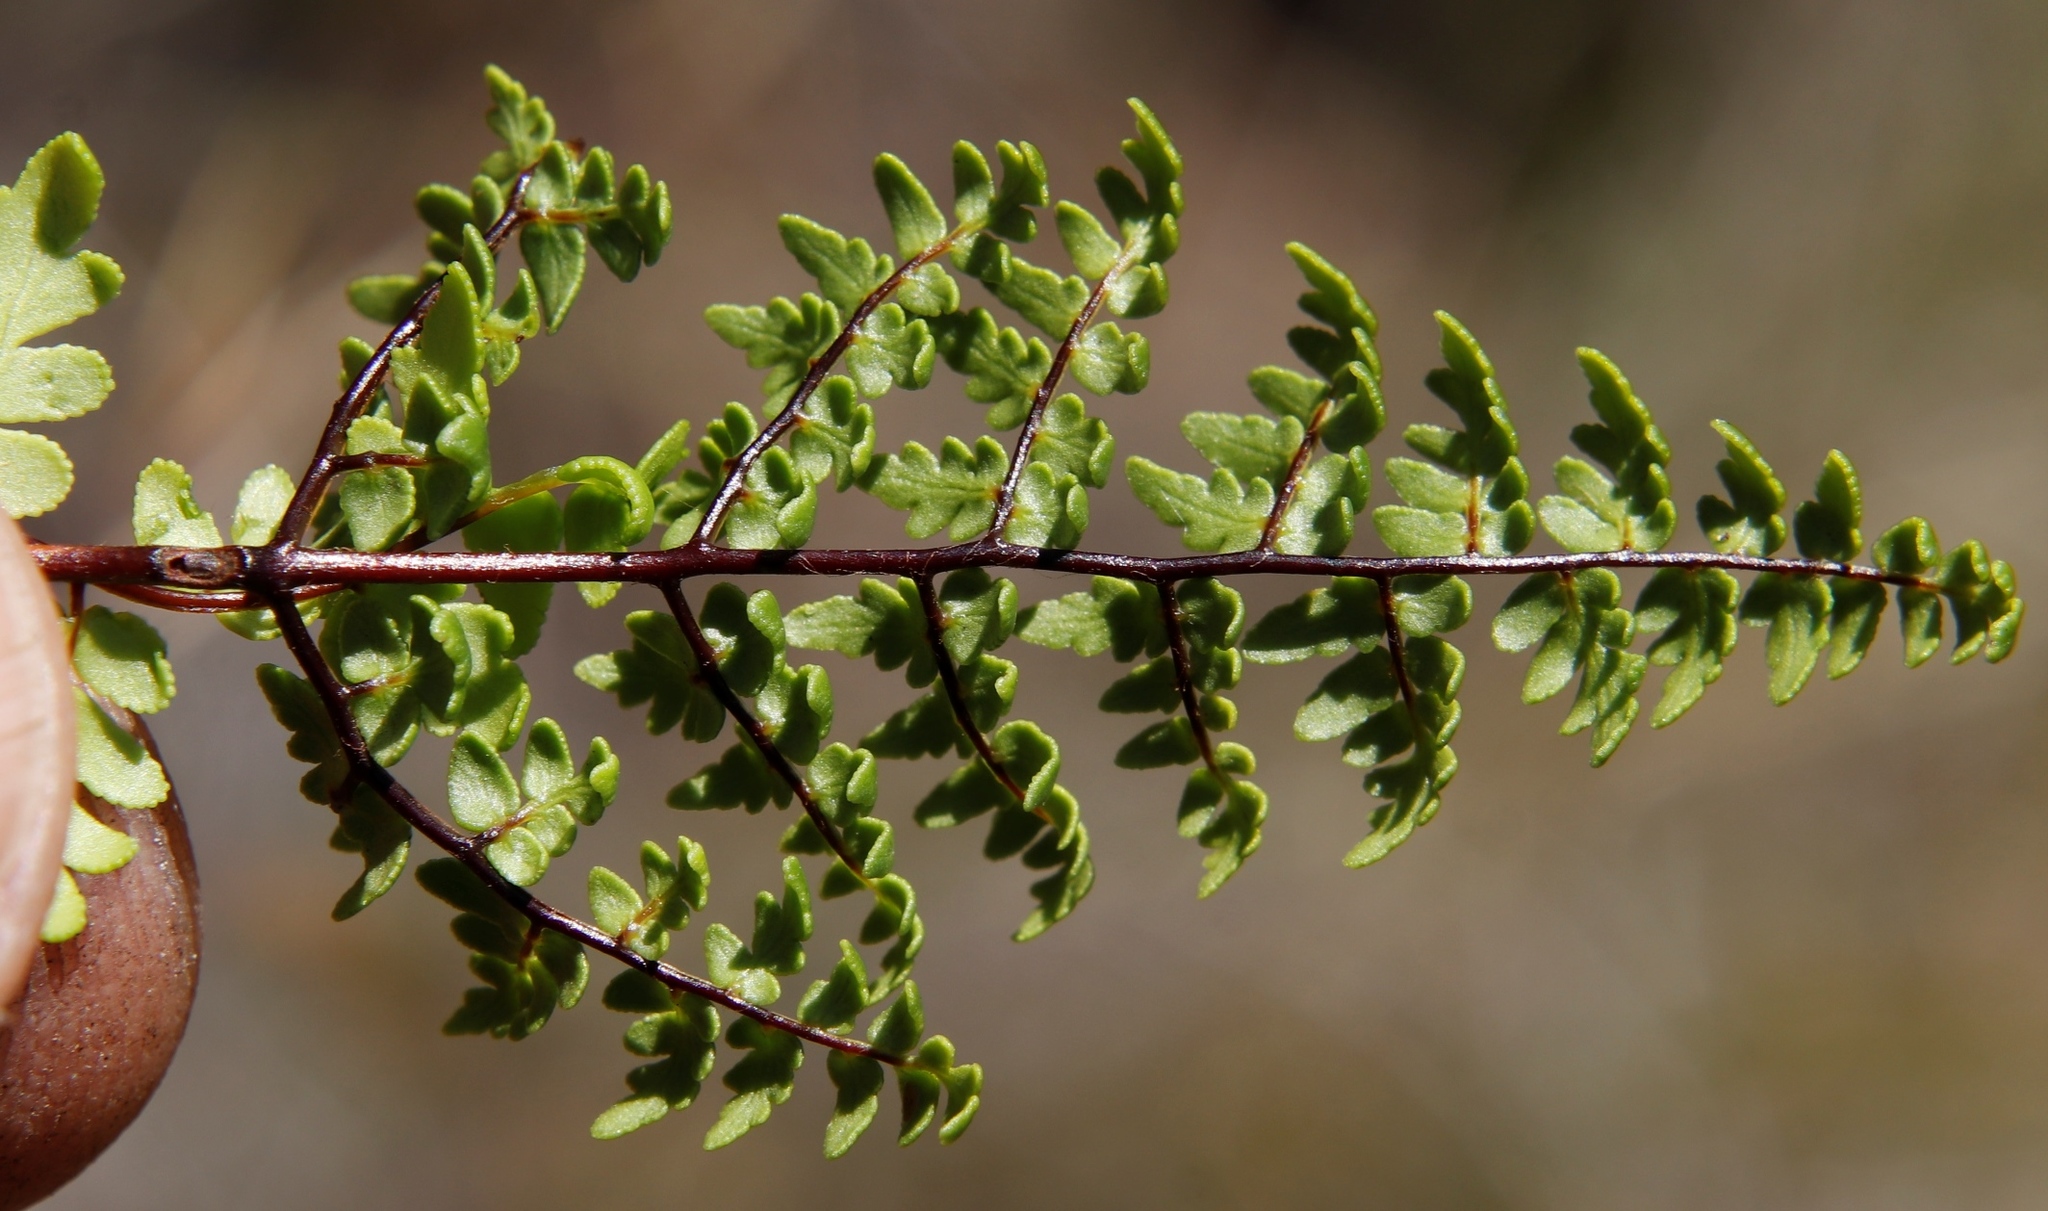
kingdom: Plantae
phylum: Tracheophyta
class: Polypodiopsida
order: Polypodiales
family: Pteridaceae
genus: Cheilanthes
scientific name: Cheilanthes quadripinnata
